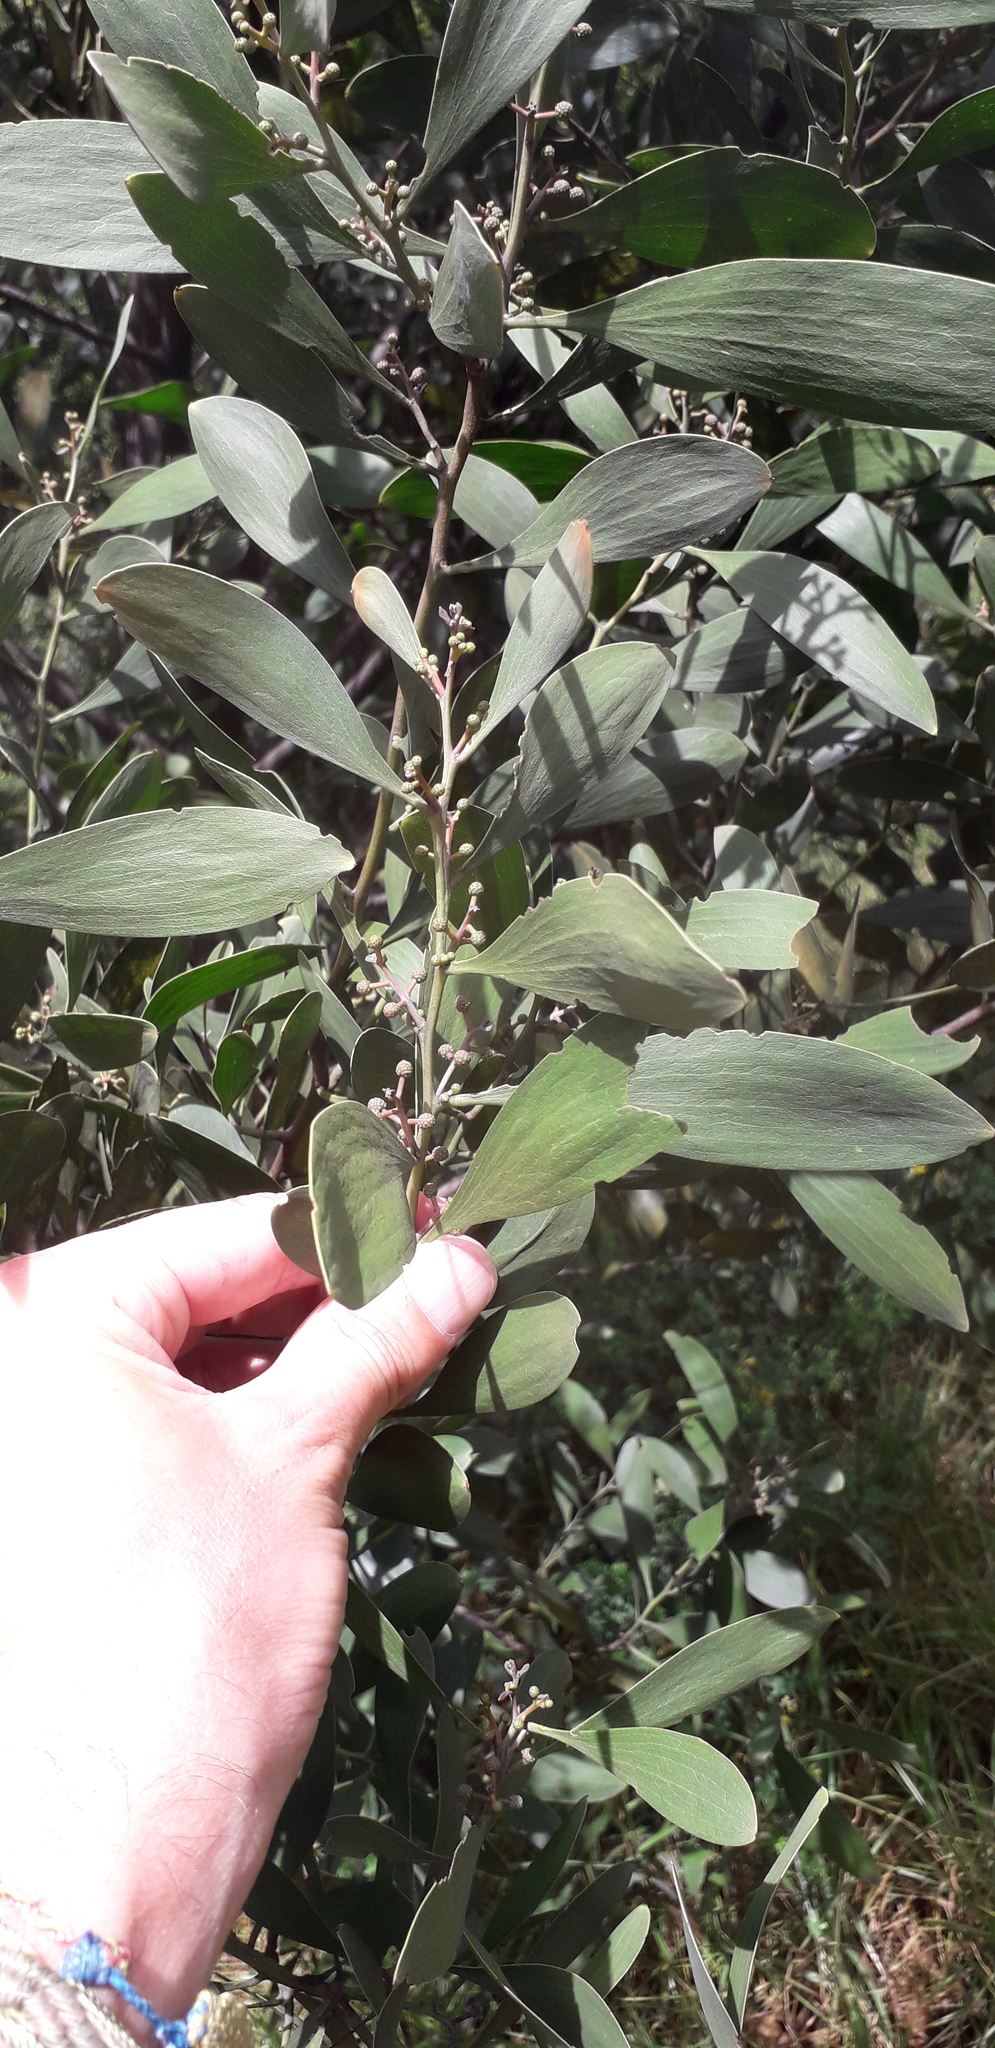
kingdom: Plantae
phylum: Tracheophyta
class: Magnoliopsida
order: Fabales
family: Fabaceae
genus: Acacia
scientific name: Acacia melanoxylon
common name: Blackwood
